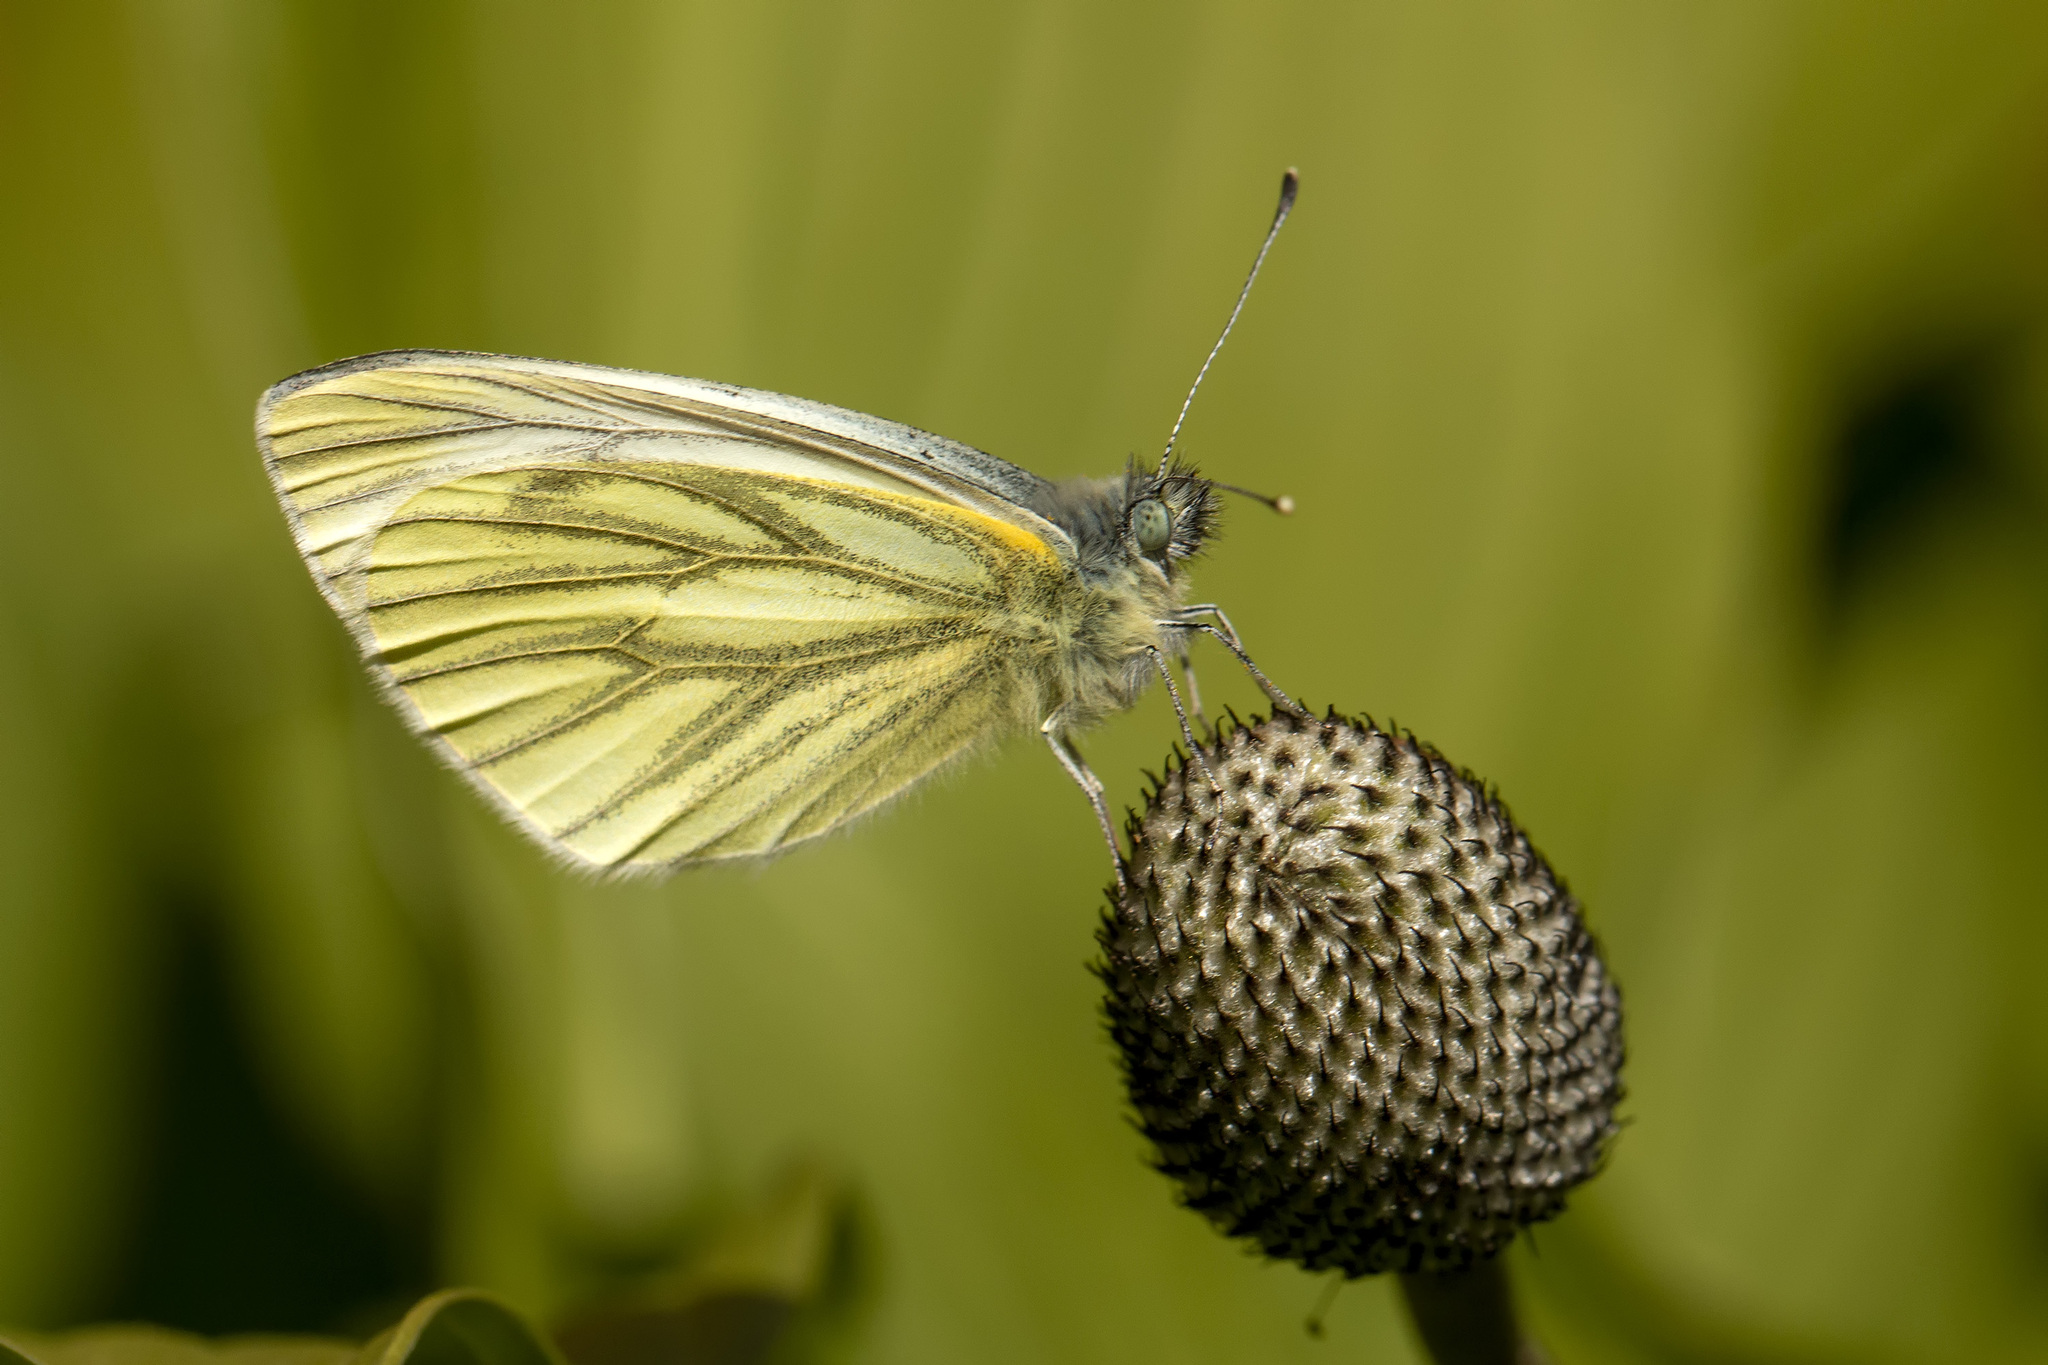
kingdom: Animalia
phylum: Arthropoda
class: Insecta
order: Lepidoptera
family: Pieridae
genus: Pieris
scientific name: Pieris napi
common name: Green-veined white
